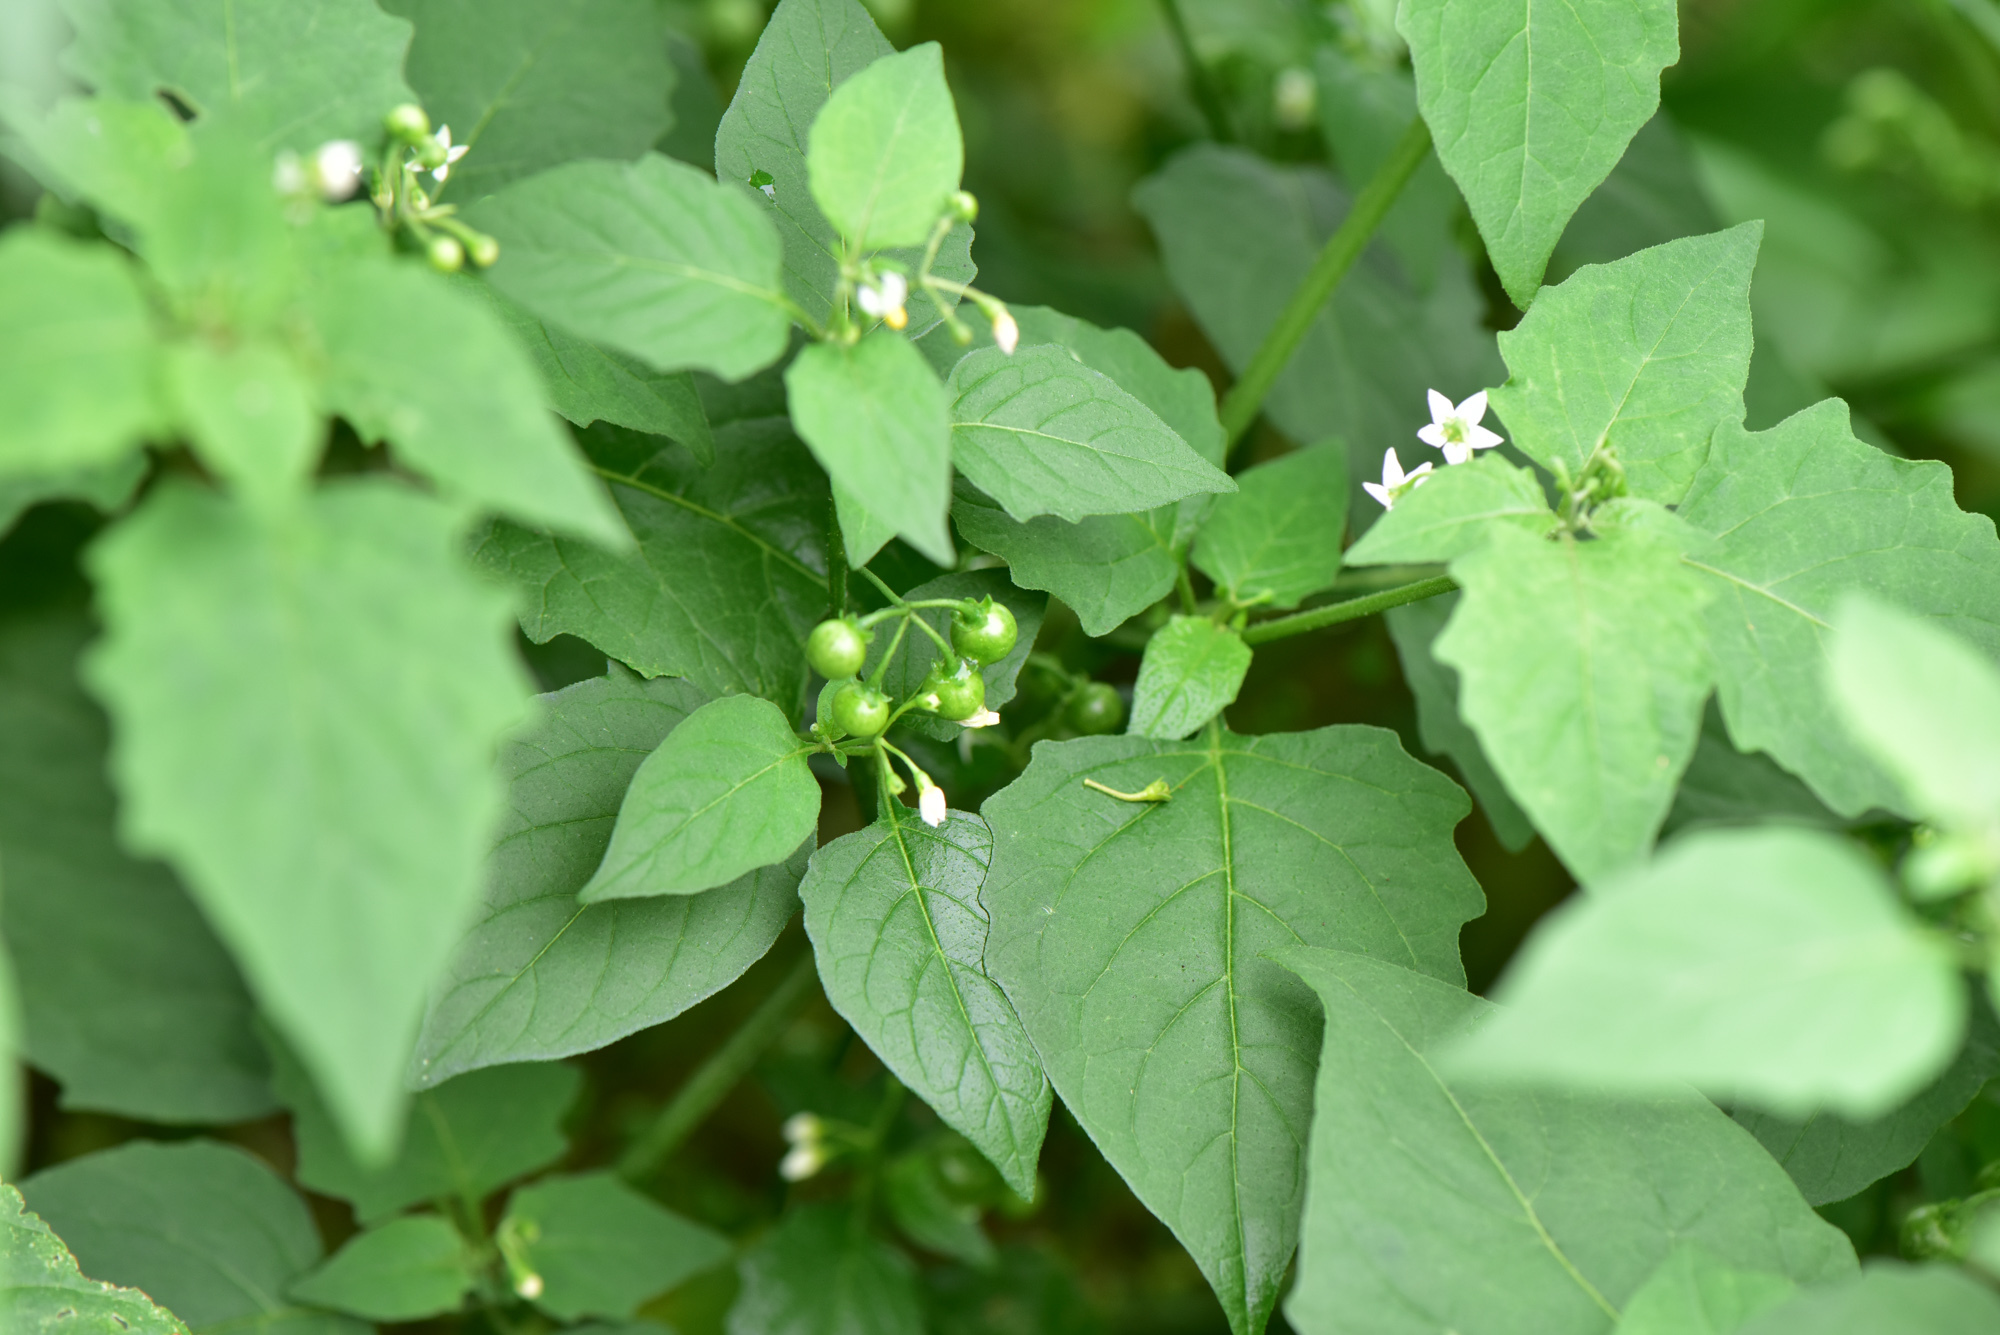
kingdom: Plantae
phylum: Tracheophyta
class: Magnoliopsida
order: Solanales
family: Solanaceae
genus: Solanum
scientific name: Solanum americanum
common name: American black nightshade
